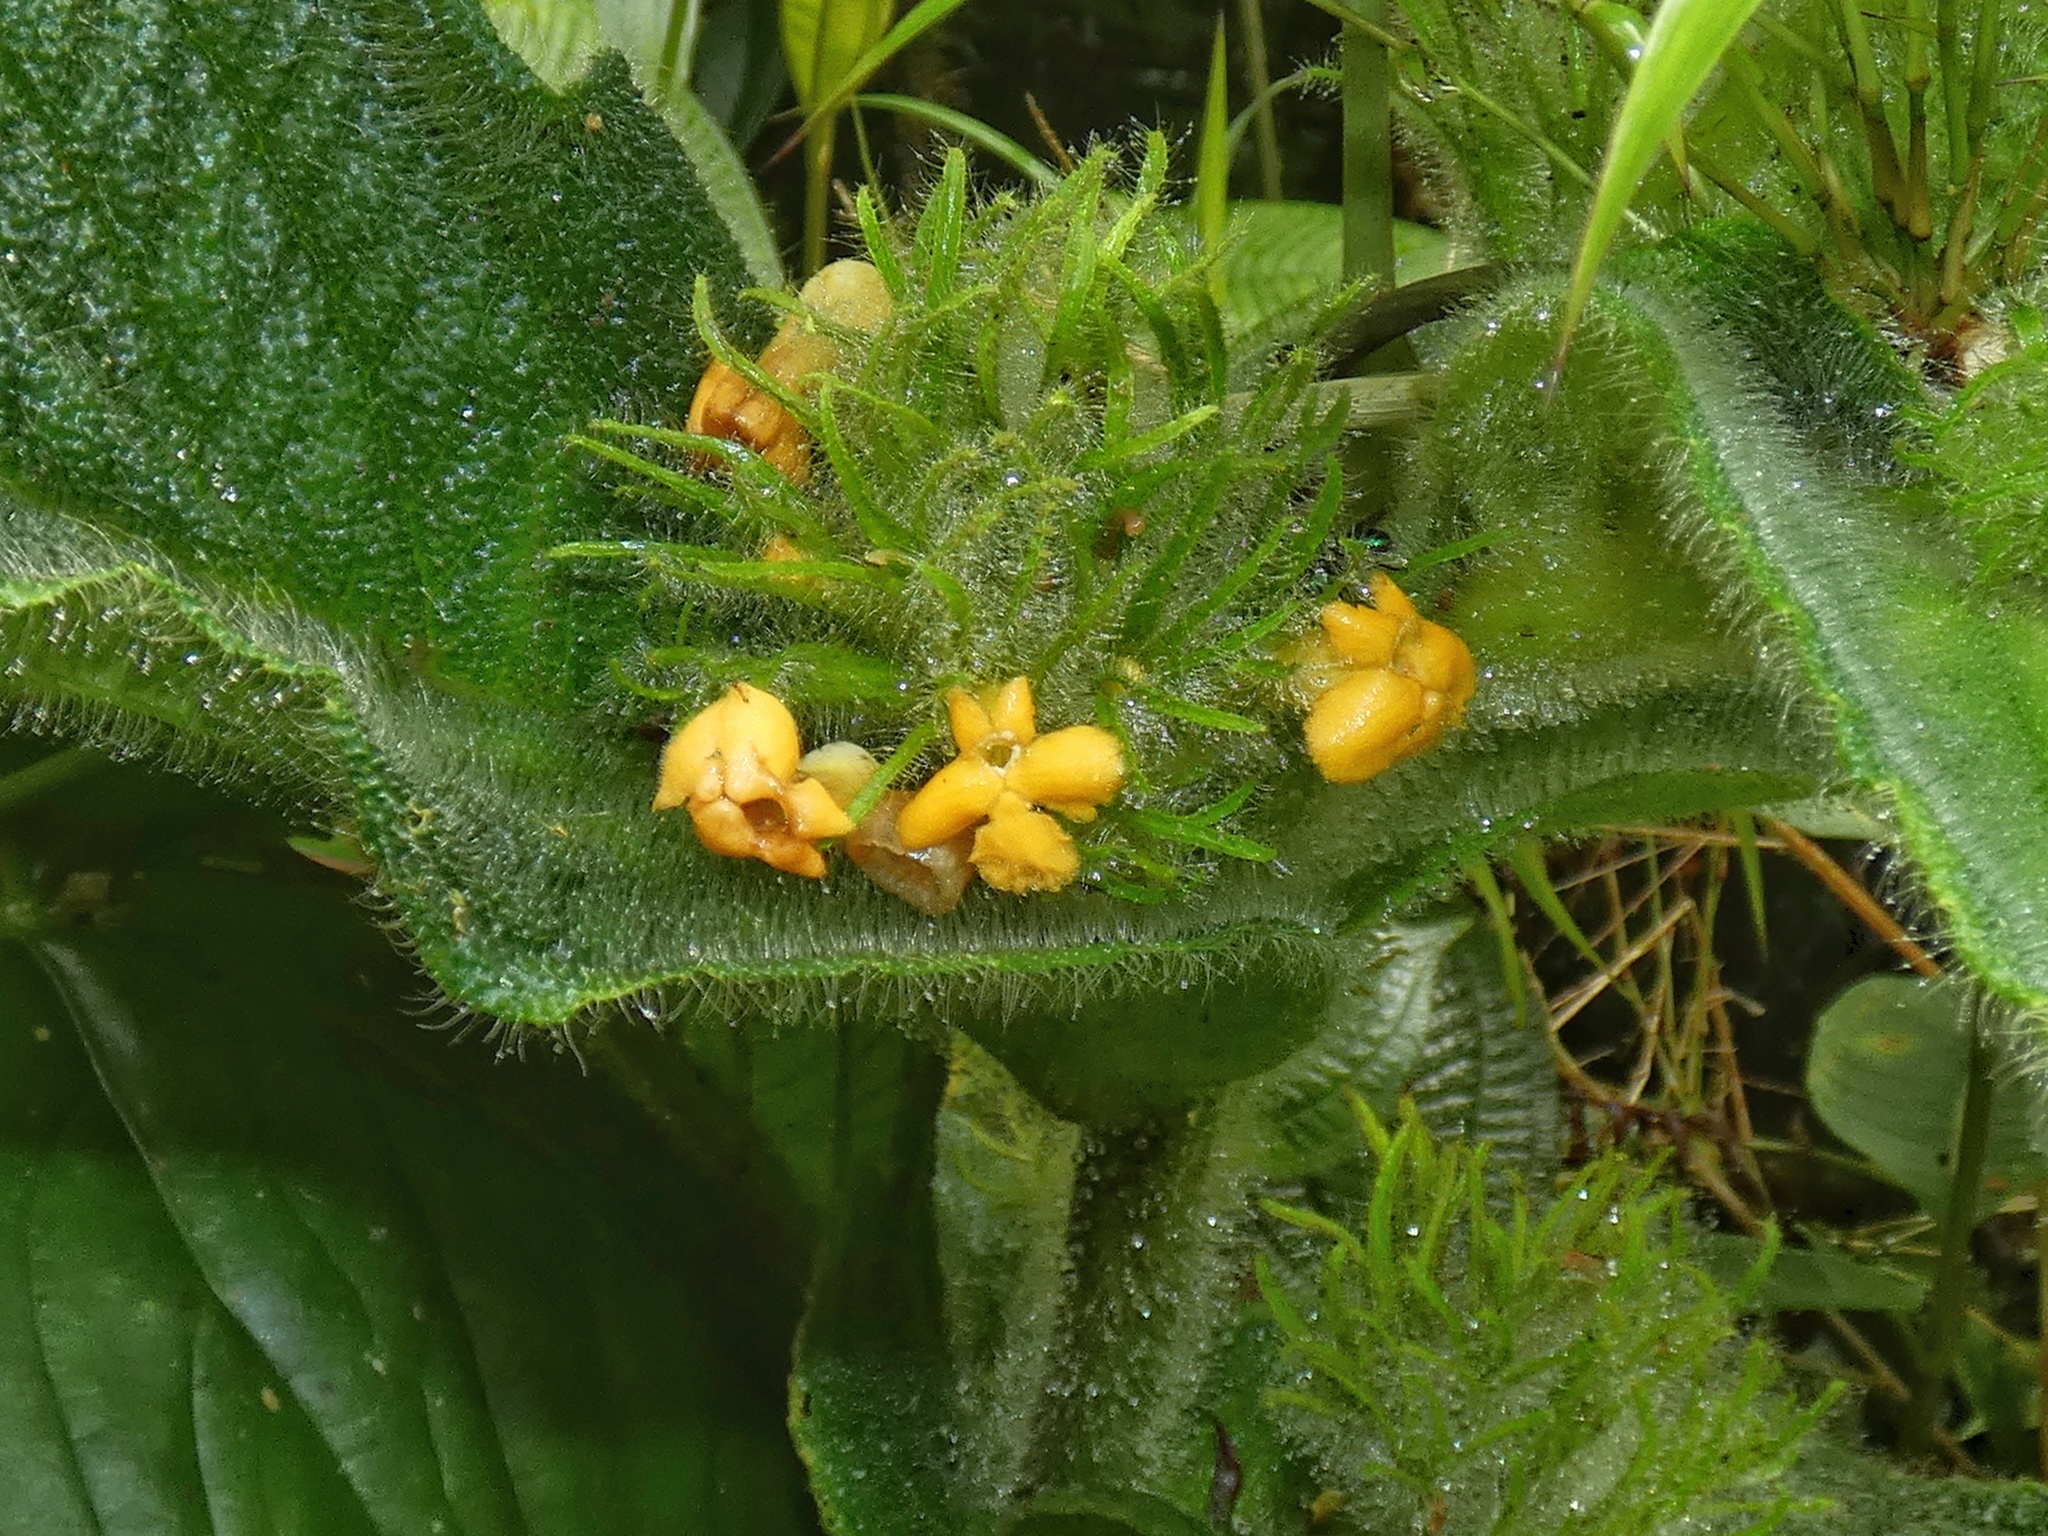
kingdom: Plantae
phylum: Tracheophyta
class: Magnoliopsida
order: Lamiales
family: Gesneriaceae
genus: Besleria
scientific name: Besleria formicaria
